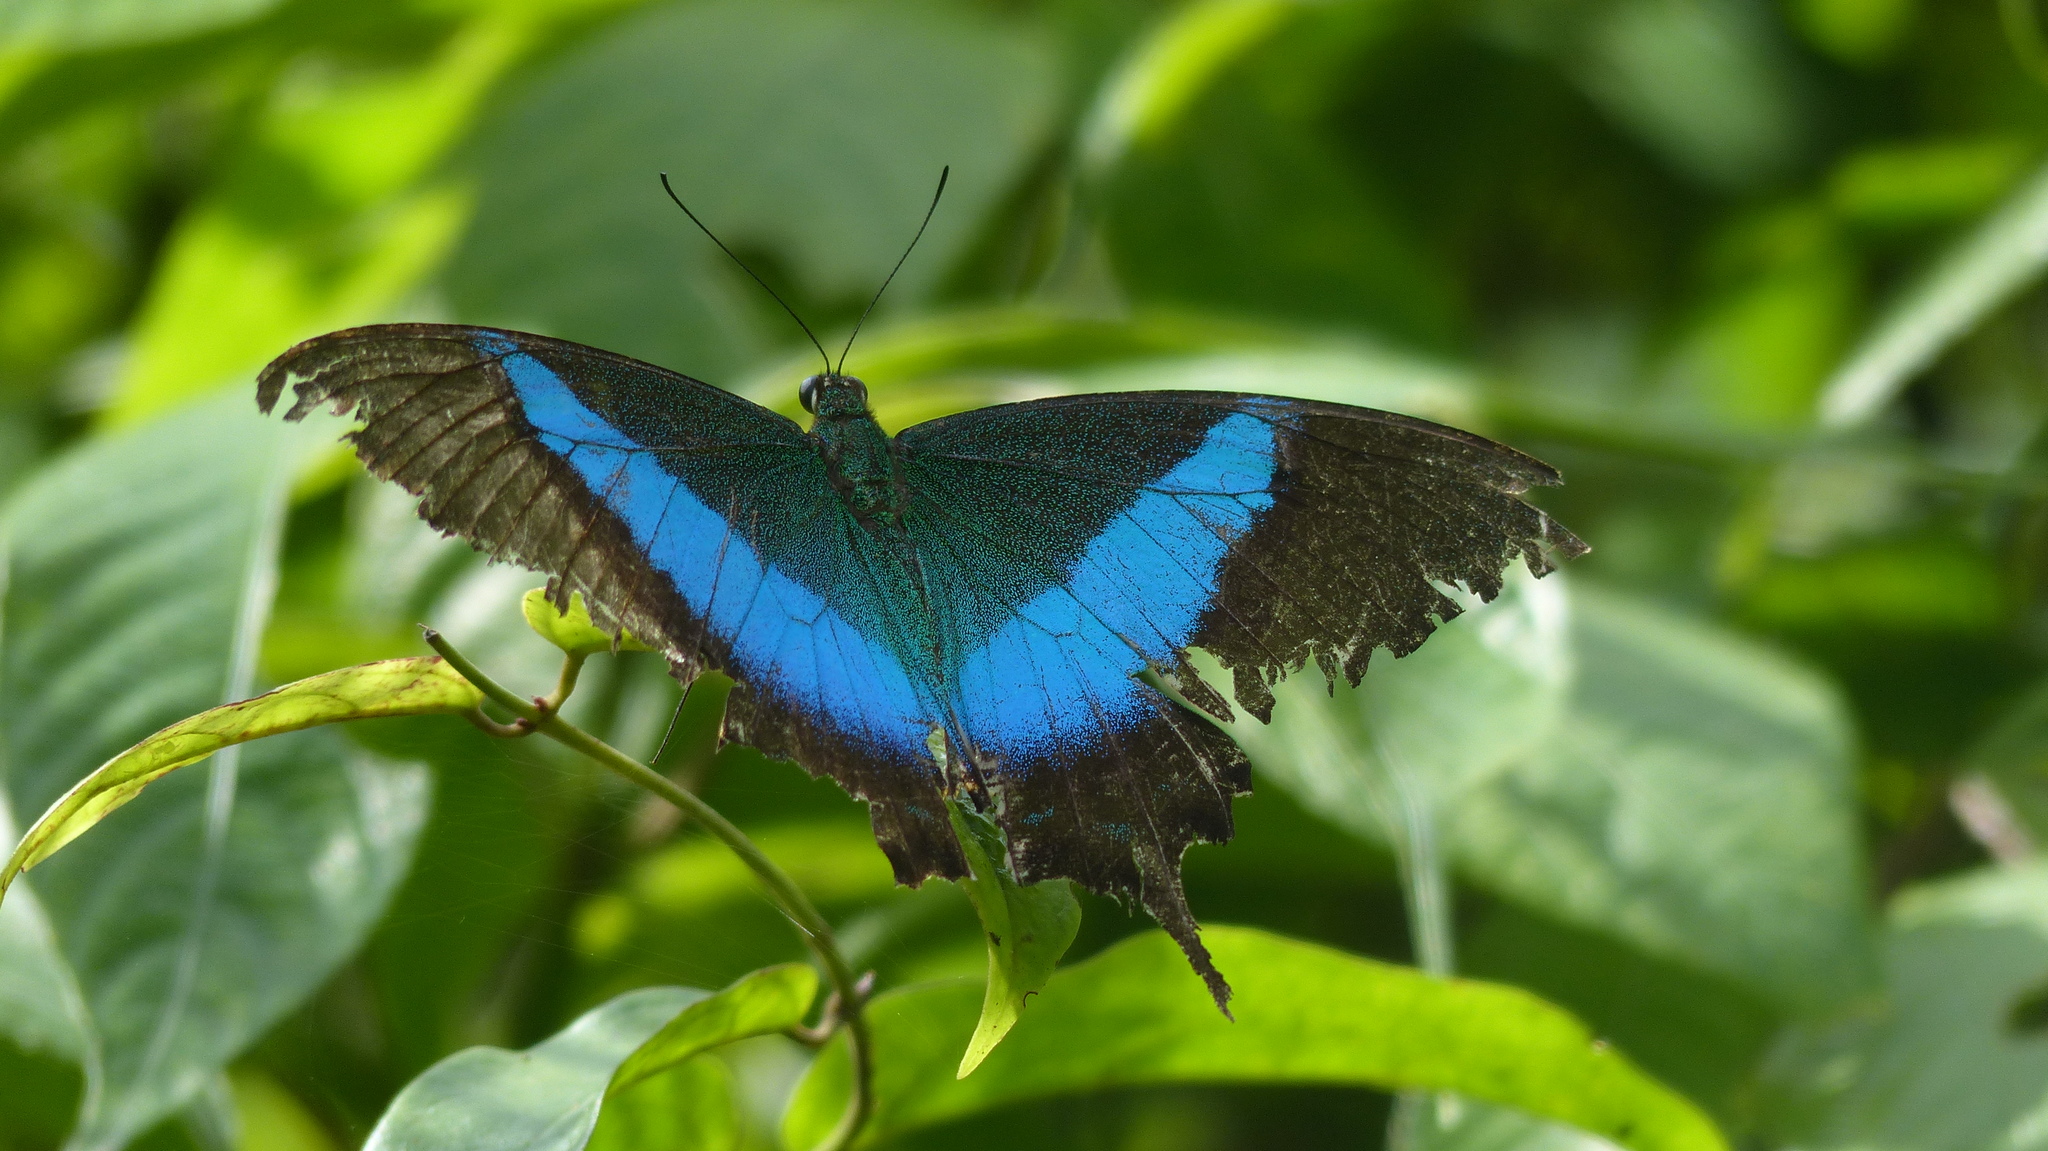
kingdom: Animalia
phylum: Arthropoda
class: Insecta
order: Lepidoptera
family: Papilionidae
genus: Papilio
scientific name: Papilio buddha
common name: Malabar banded peacock
